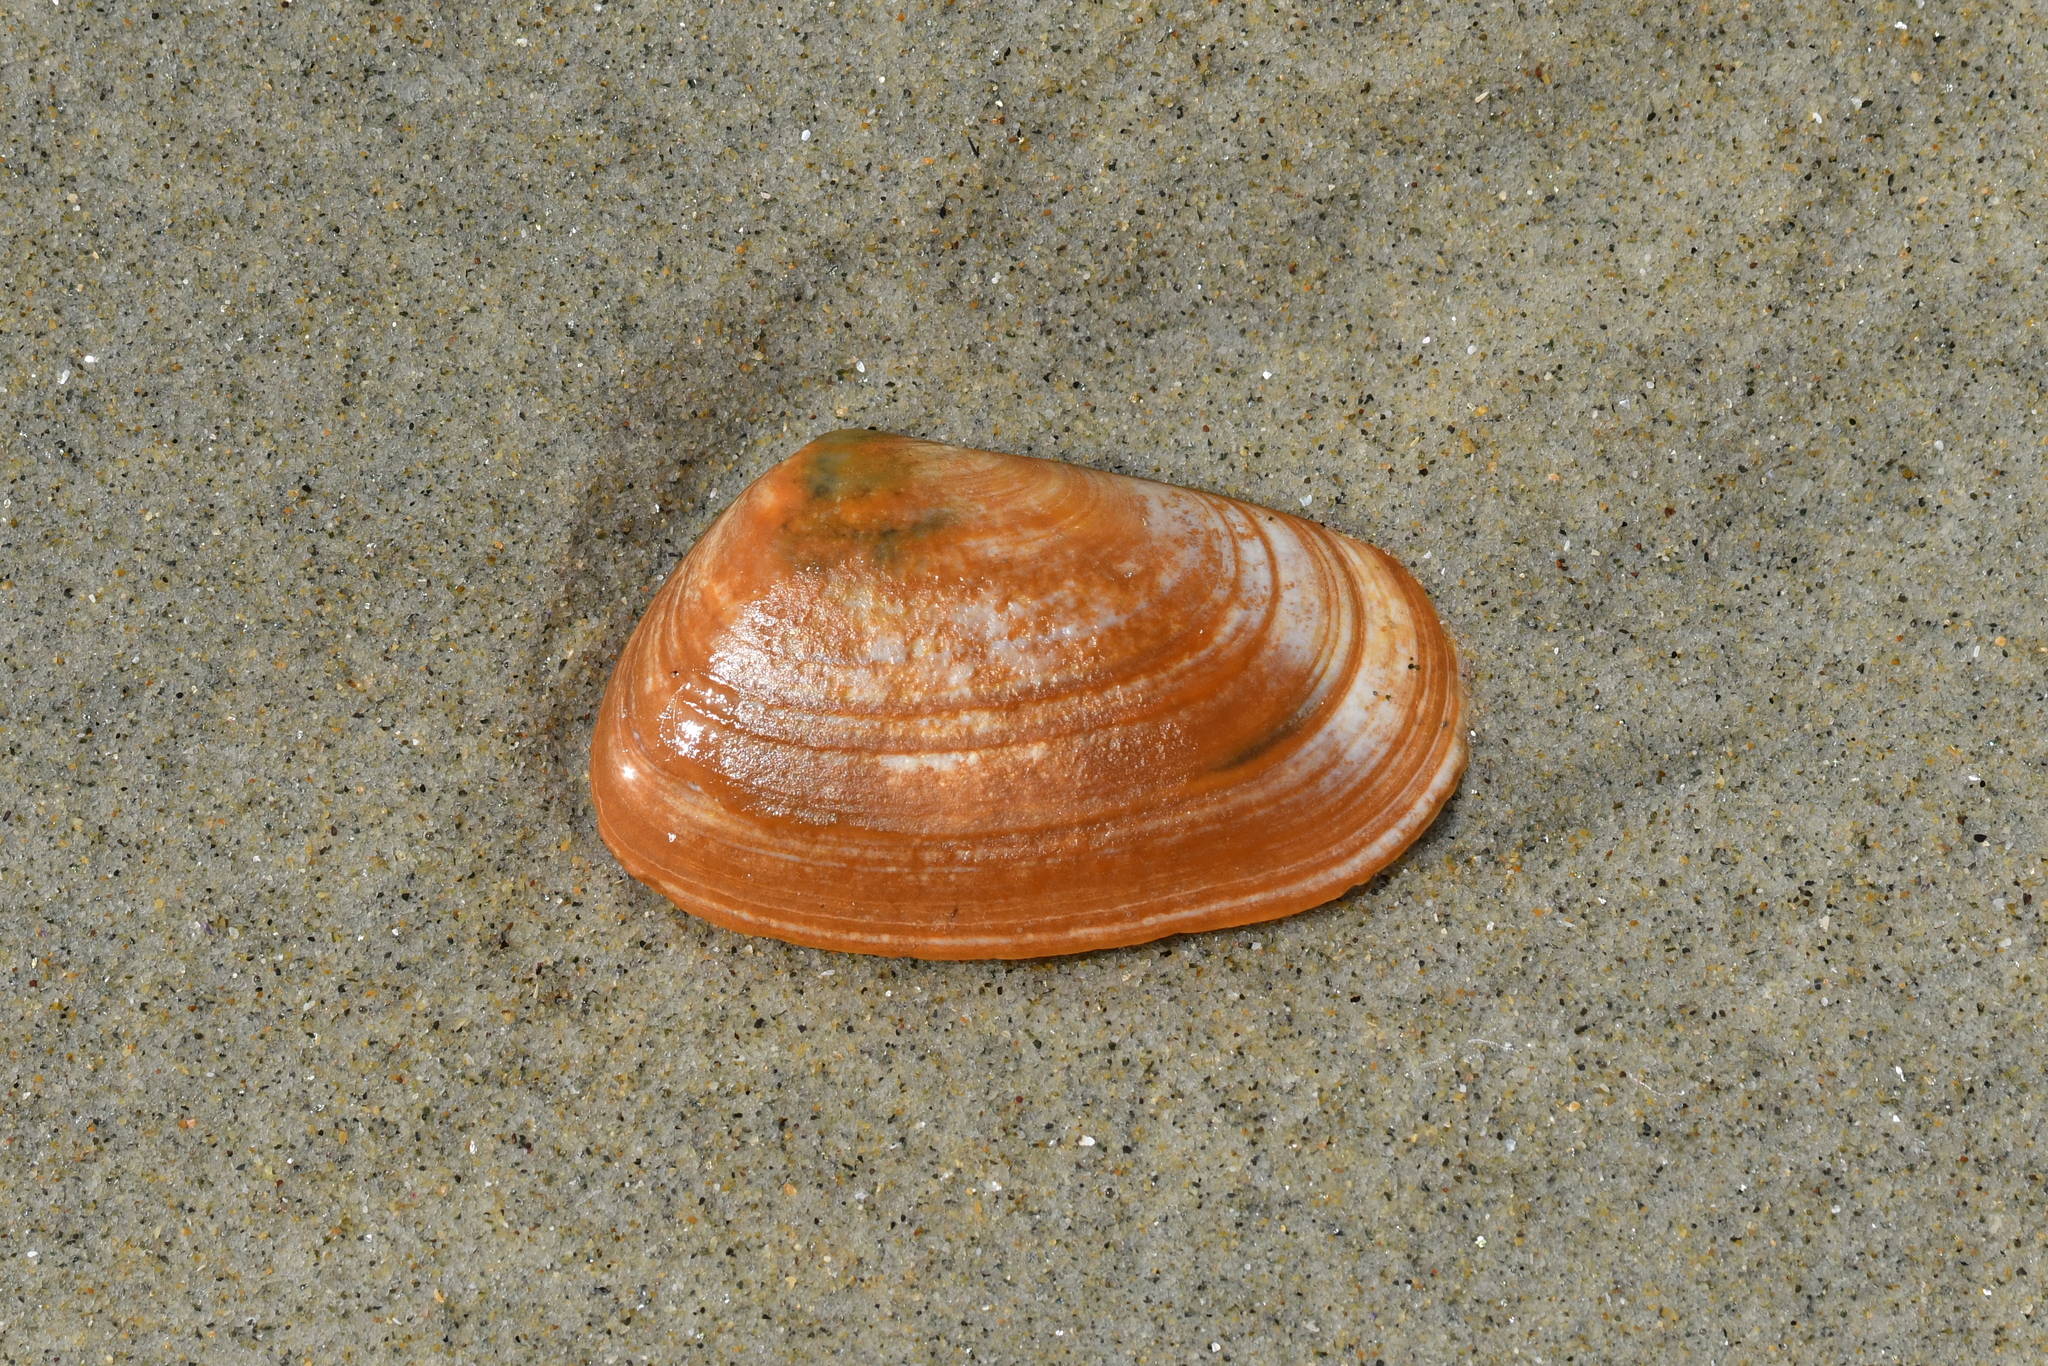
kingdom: Animalia
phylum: Mollusca
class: Bivalvia
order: Venerida
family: Mesodesmatidae
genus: Paphies
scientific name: Paphies subtriangulata
